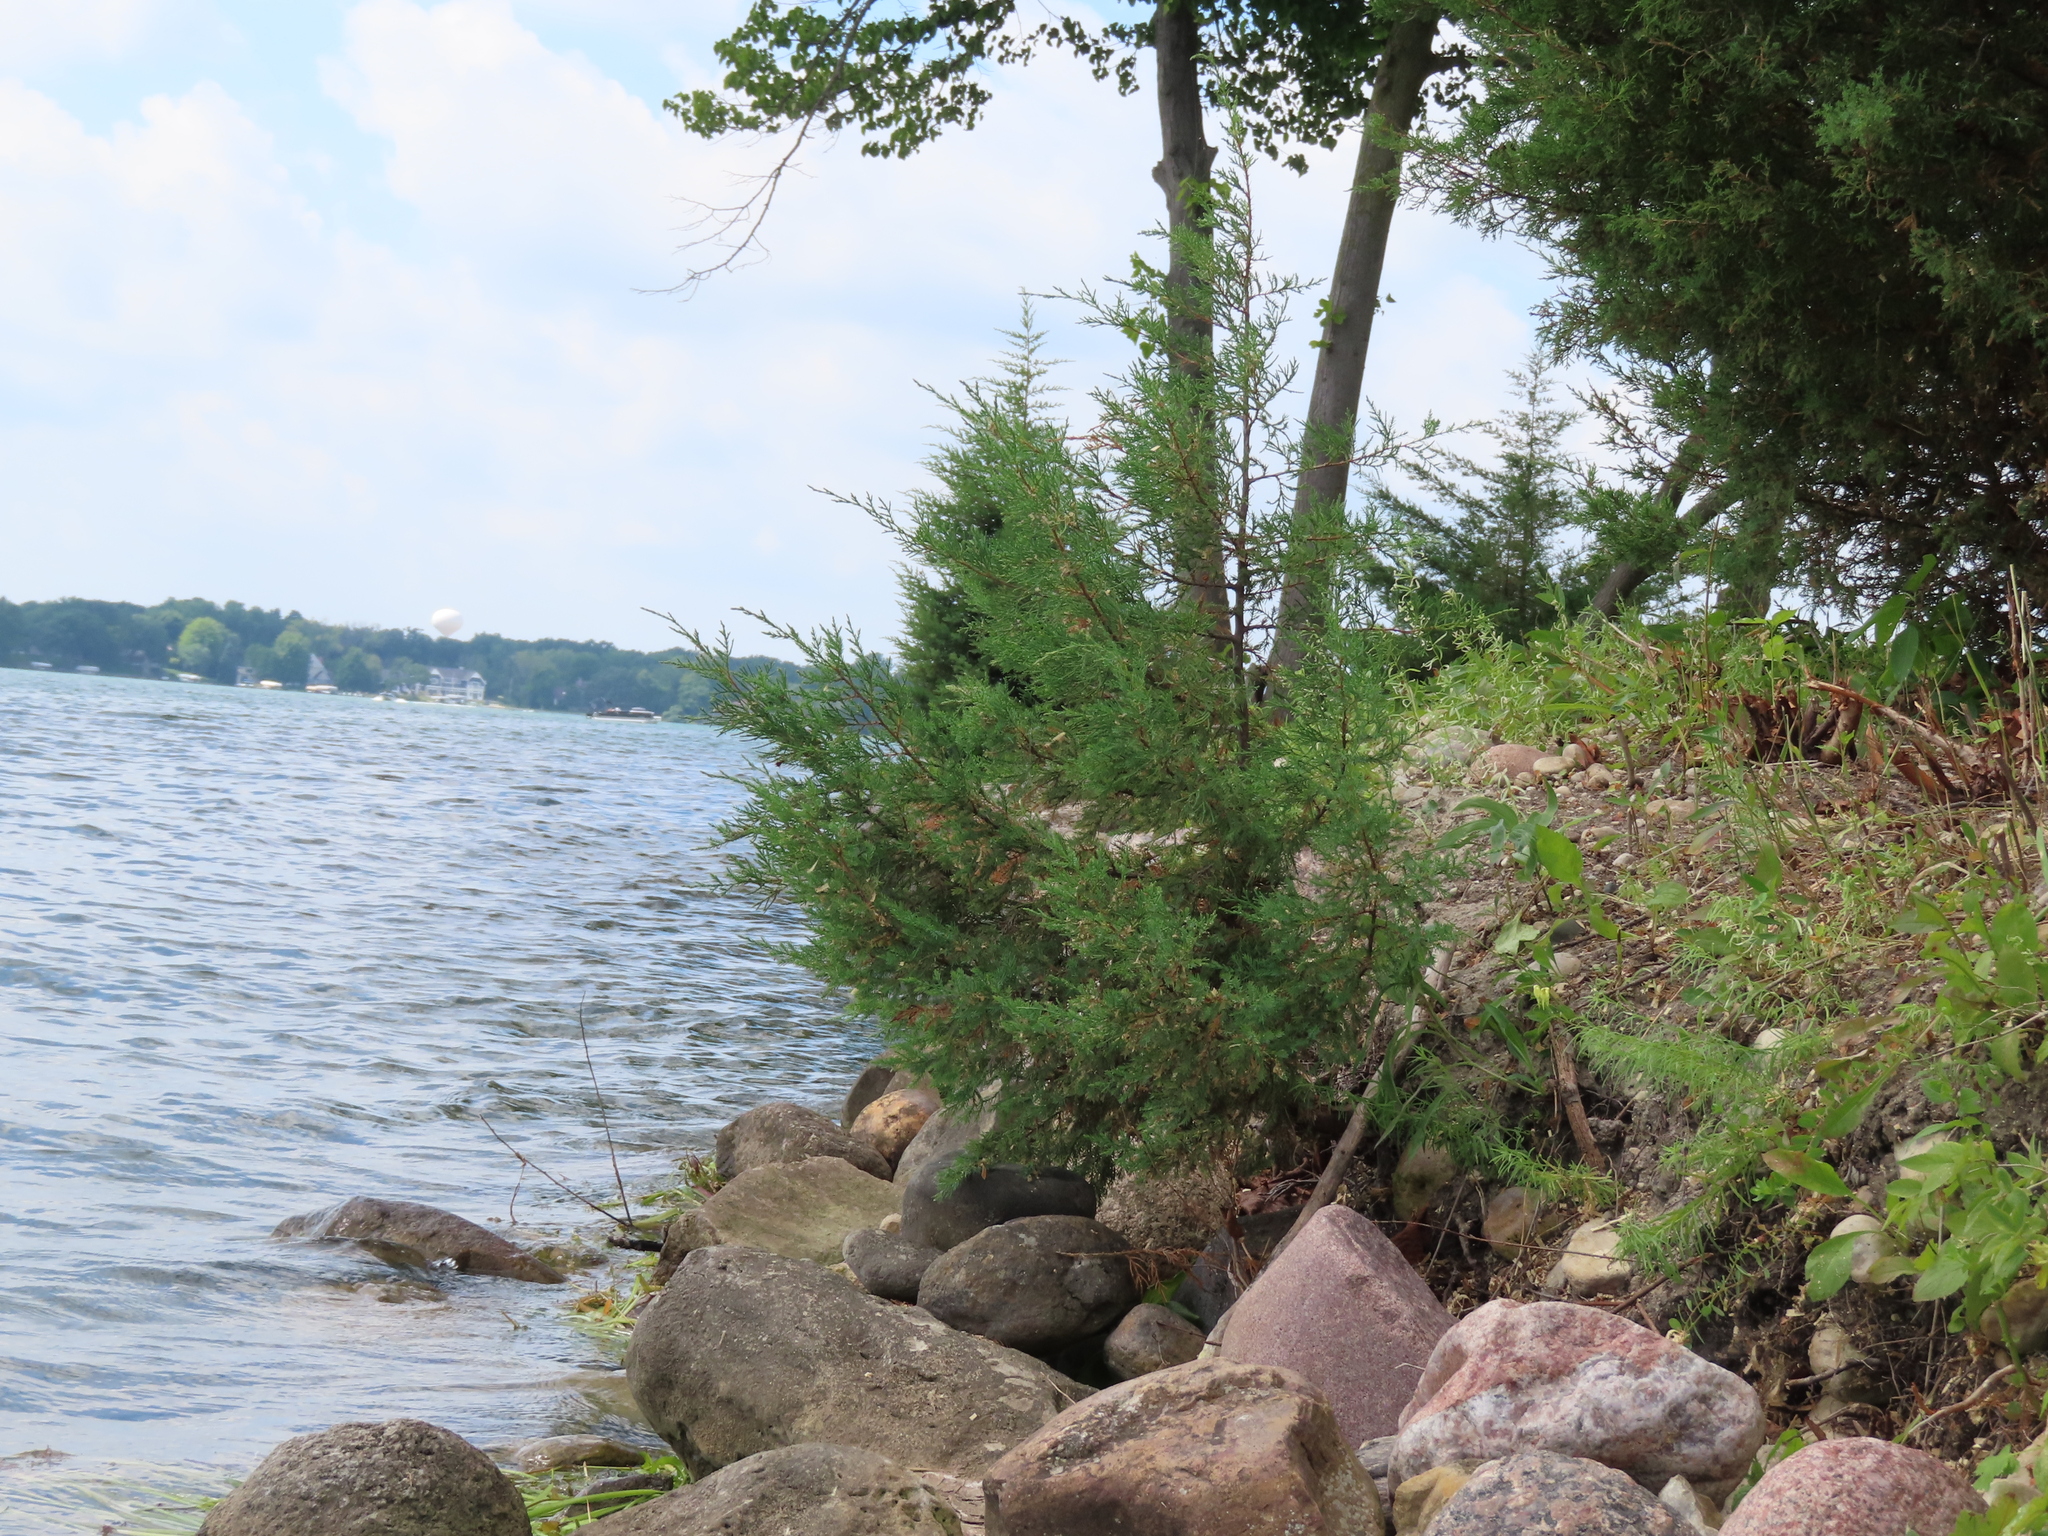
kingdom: Plantae
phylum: Tracheophyta
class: Pinopsida
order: Pinales
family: Cupressaceae
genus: Juniperus
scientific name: Juniperus virginiana
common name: Red juniper
